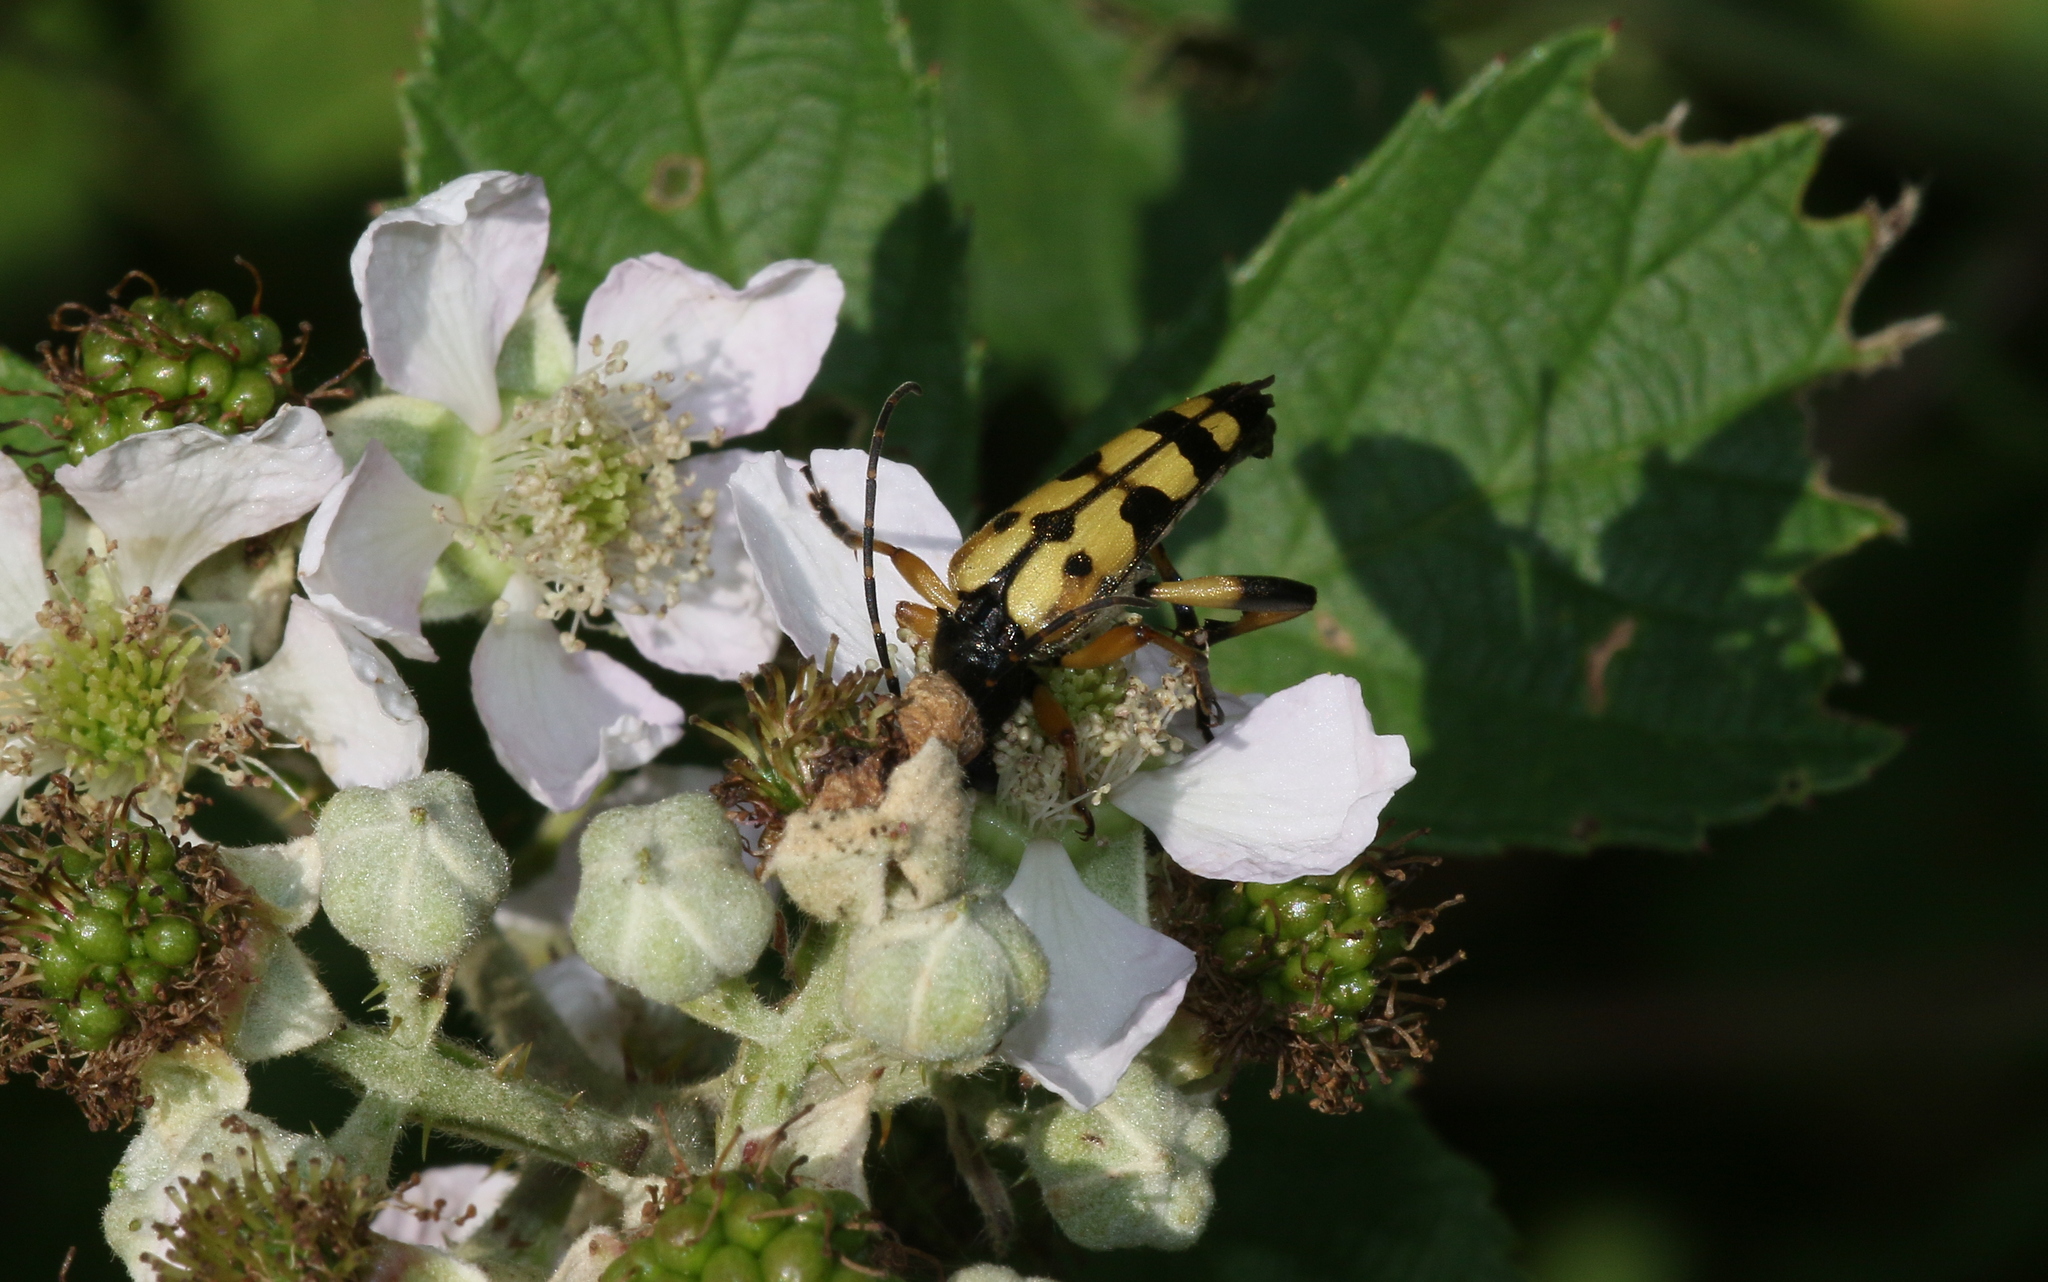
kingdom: Animalia
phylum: Arthropoda
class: Insecta
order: Coleoptera
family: Cerambycidae
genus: Rutpela
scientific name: Rutpela maculata
